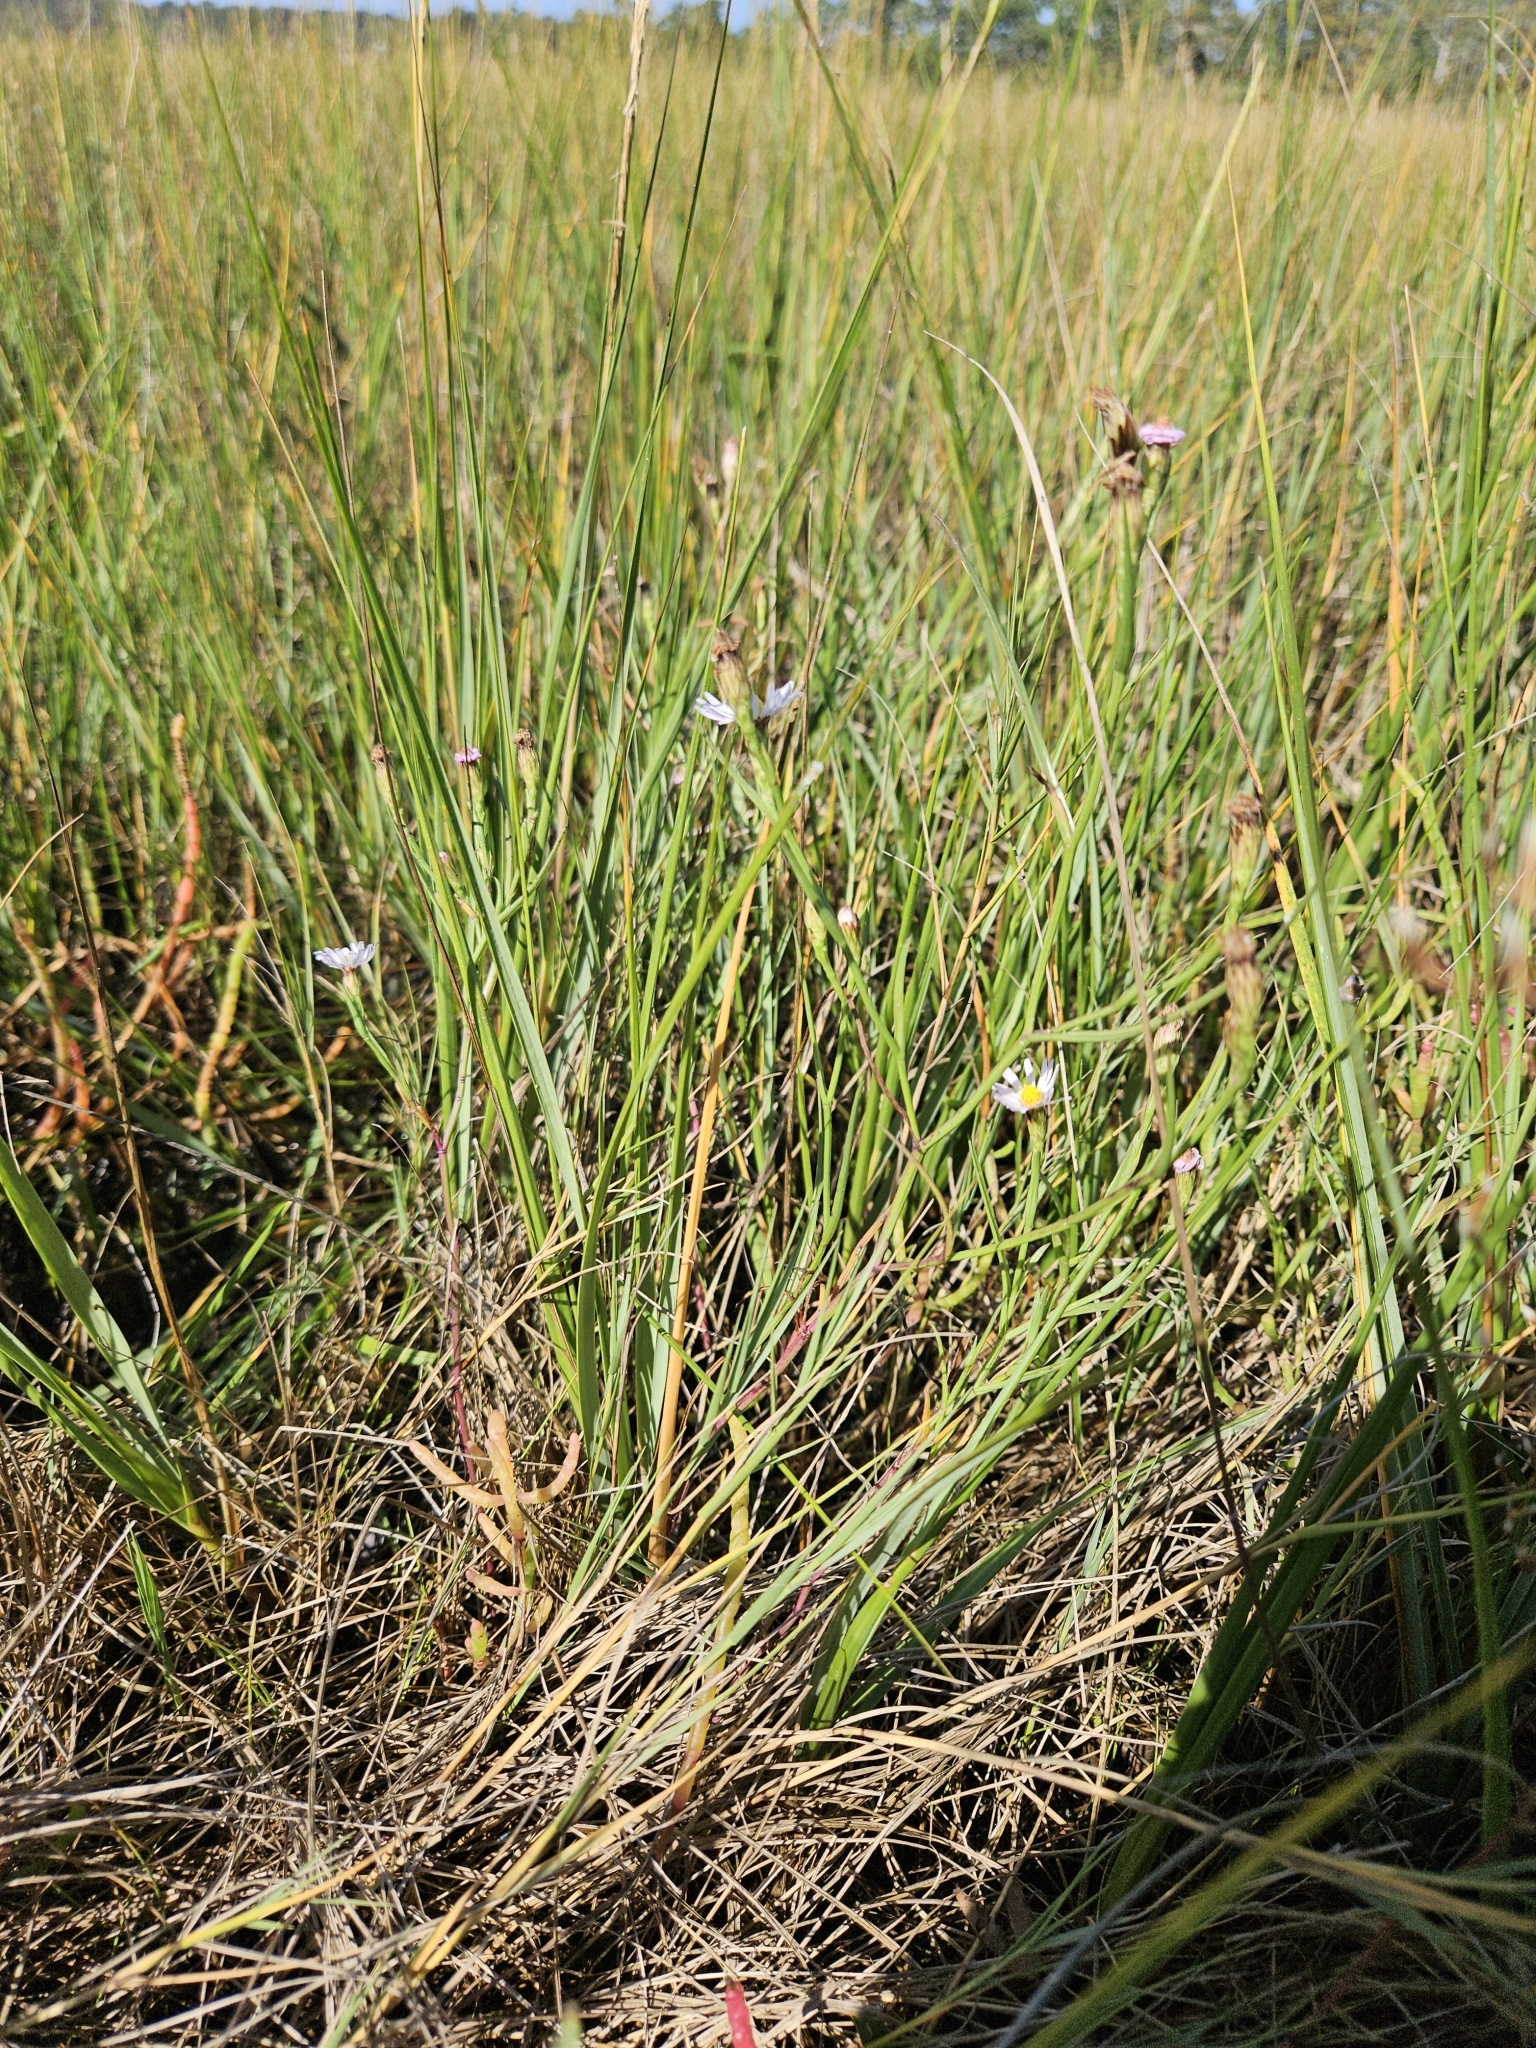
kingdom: Plantae
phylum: Tracheophyta
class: Magnoliopsida
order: Asterales
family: Asteraceae
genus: Symphyotrichum
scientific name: Symphyotrichum tenuifolium
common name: Perennial salt-marsh aster
